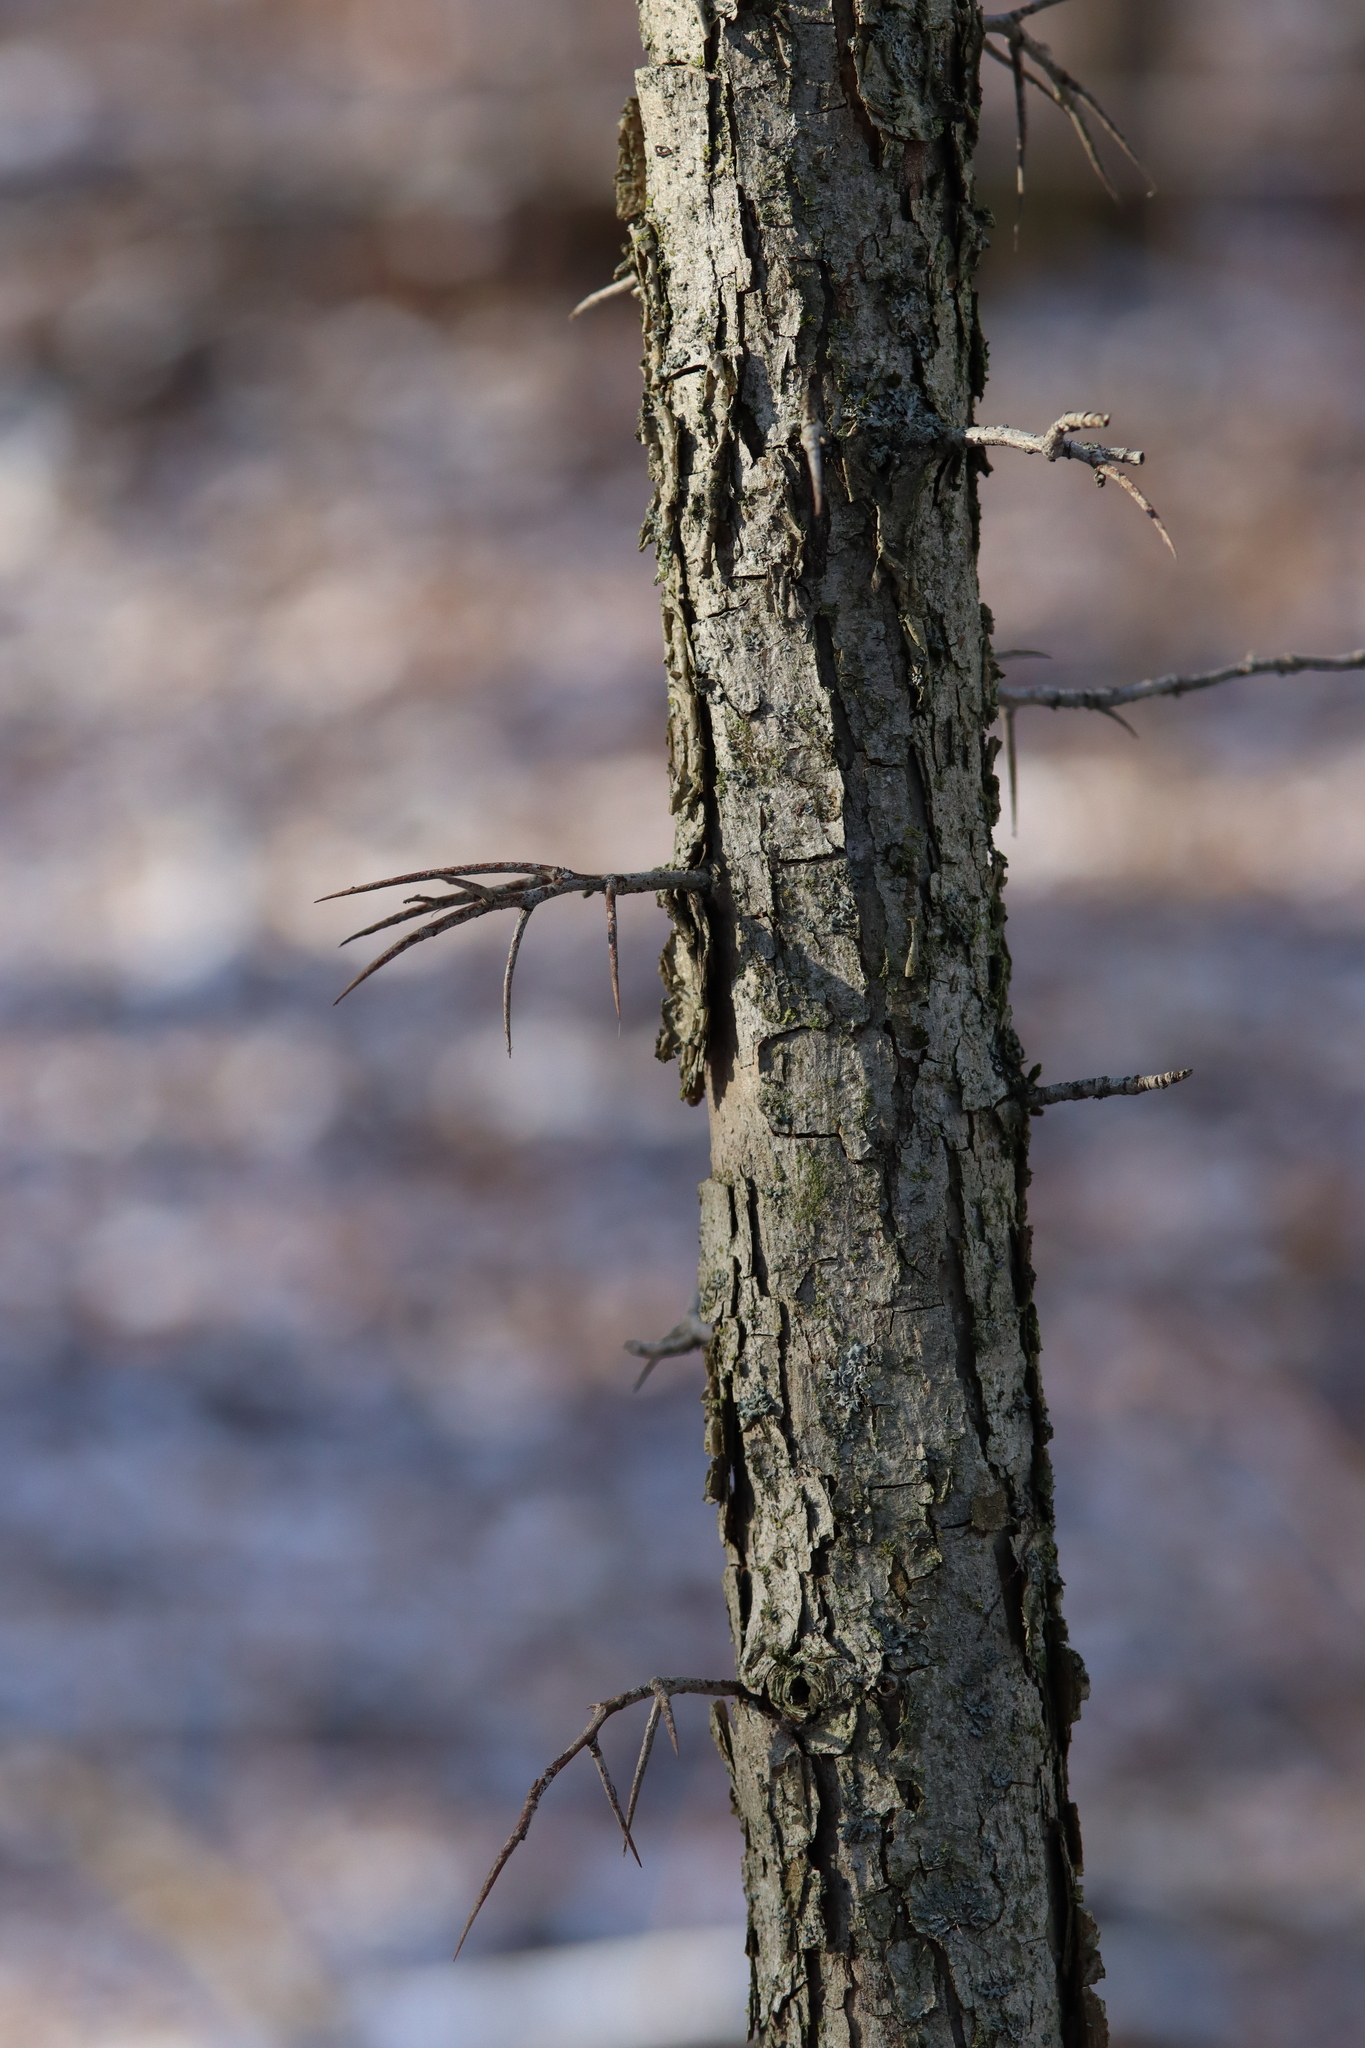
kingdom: Plantae
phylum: Tracheophyta
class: Magnoliopsida
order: Fabales
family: Fabaceae
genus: Gleditsia
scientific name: Gleditsia triacanthos
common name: Common honeylocust
